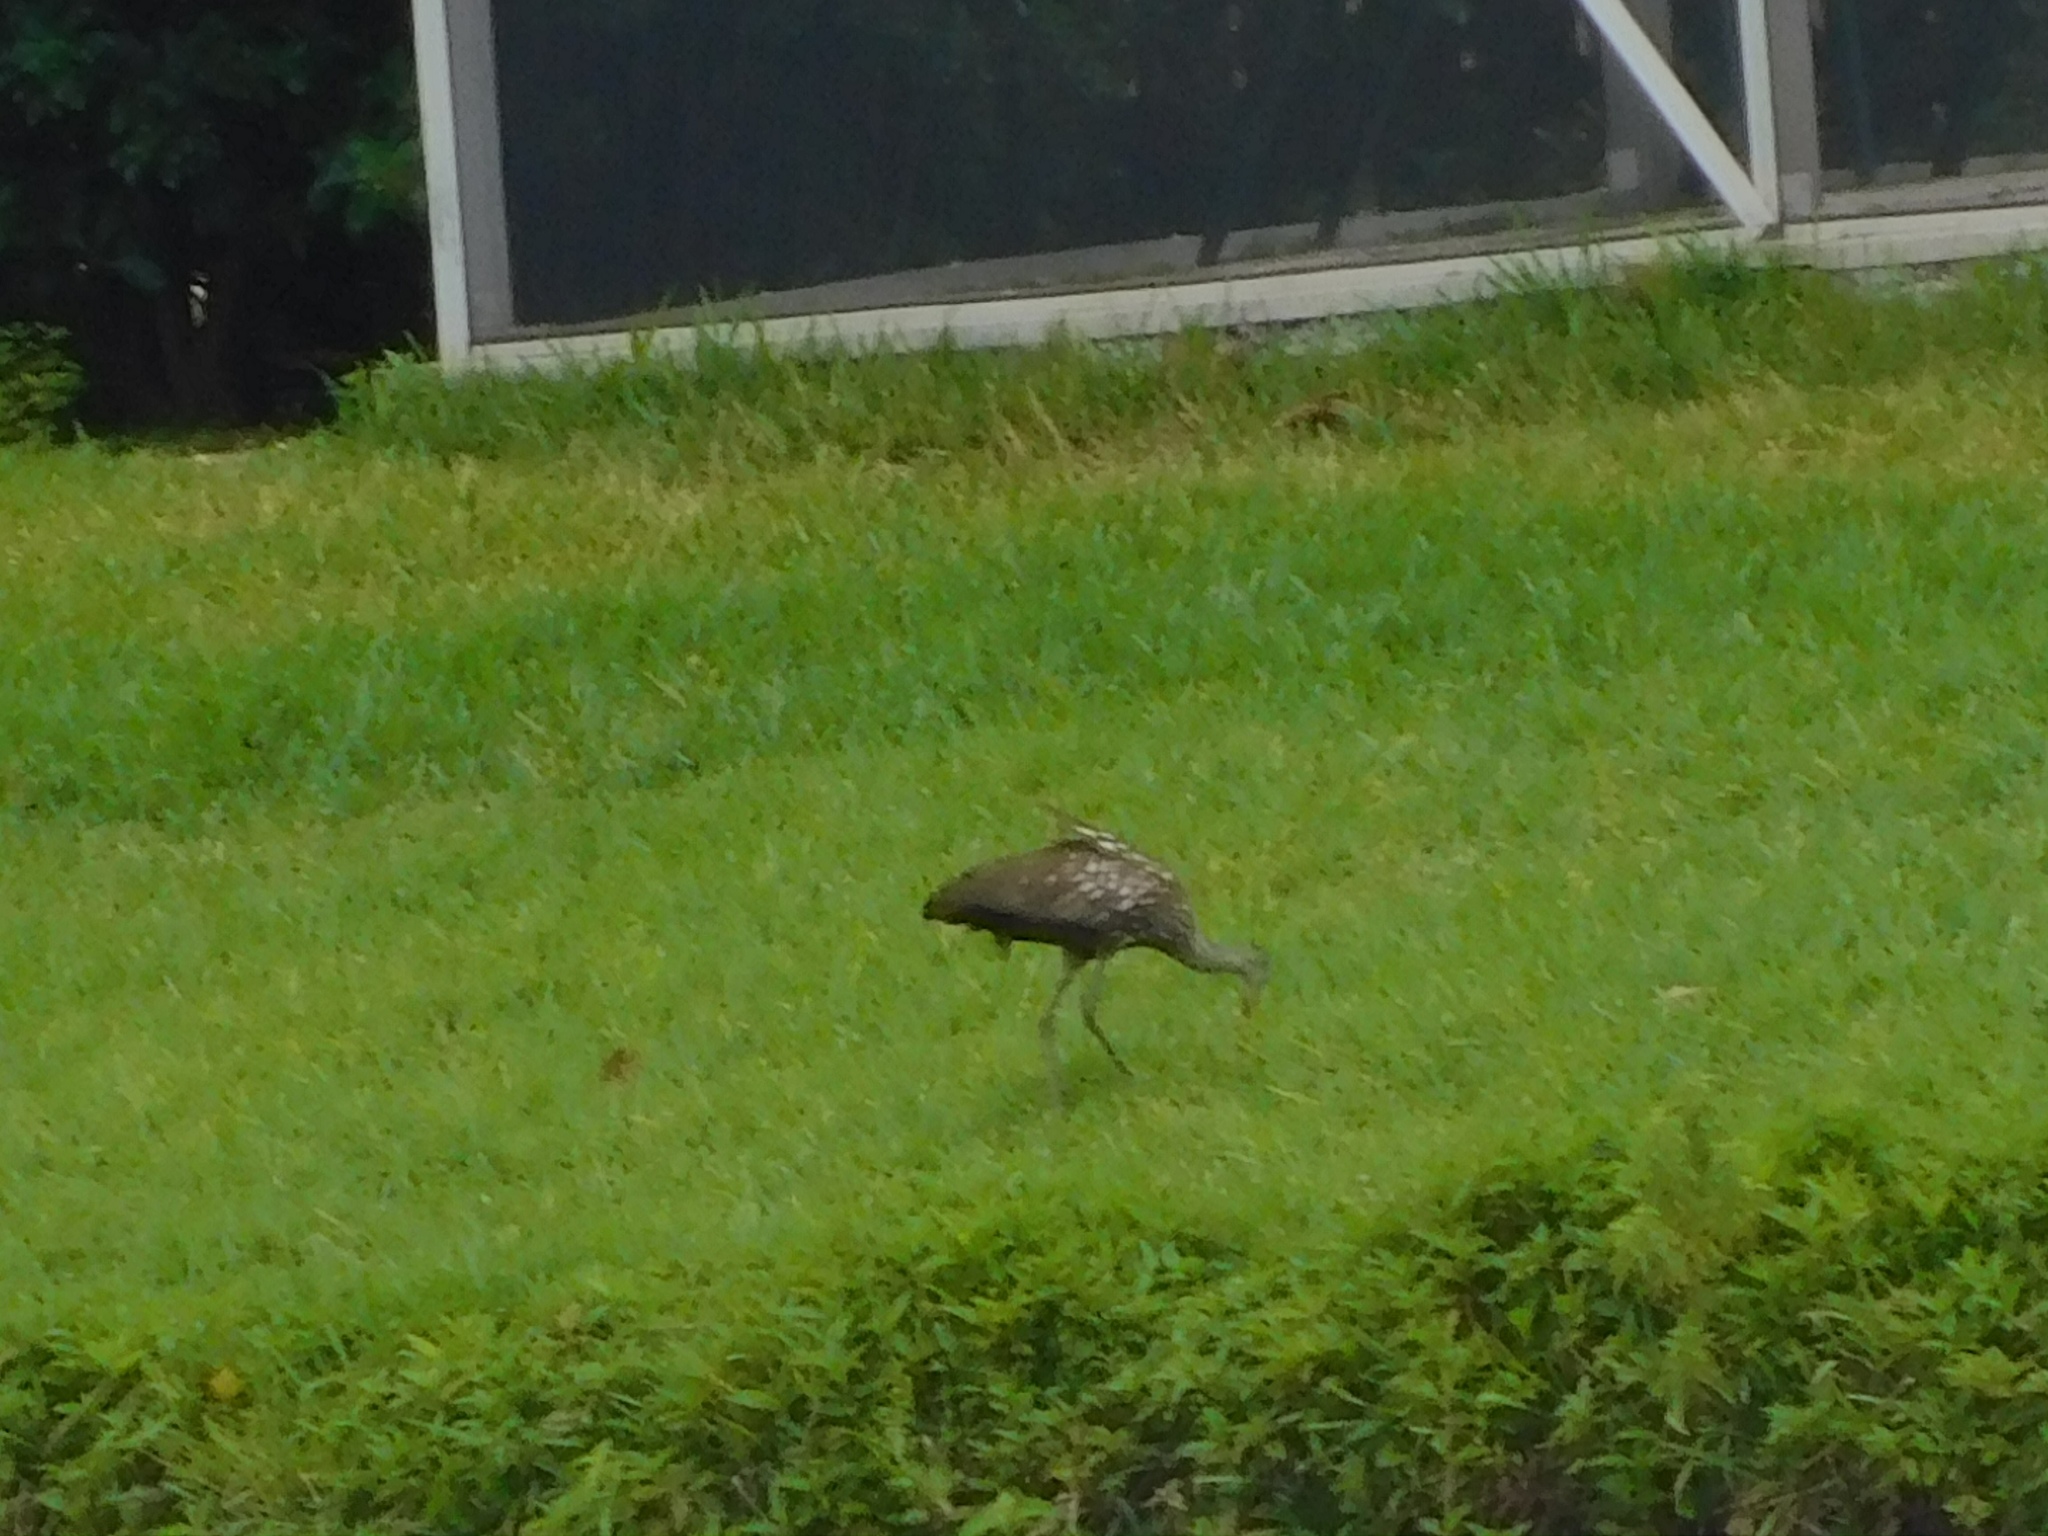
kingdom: Animalia
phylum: Chordata
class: Aves
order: Gruiformes
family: Aramidae
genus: Aramus
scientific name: Aramus guarauna
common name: Limpkin
